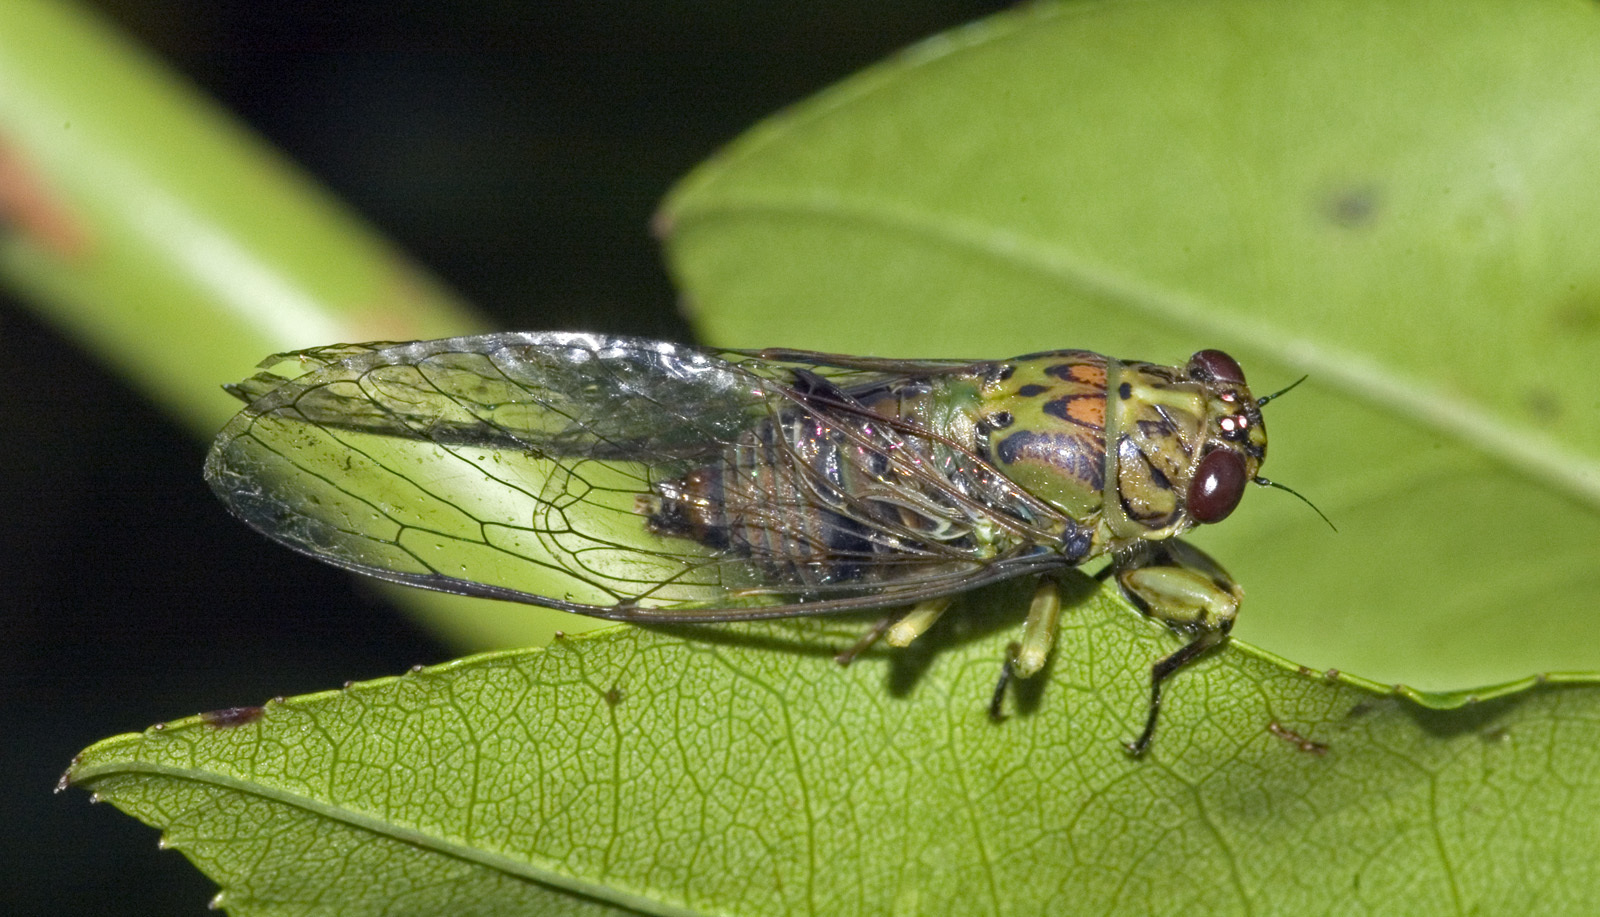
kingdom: Animalia
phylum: Arthropoda
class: Insecta
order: Hemiptera
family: Cicadidae
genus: Kikihia
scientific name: Kikihia scutellaris
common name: Lesser bronze cicada
